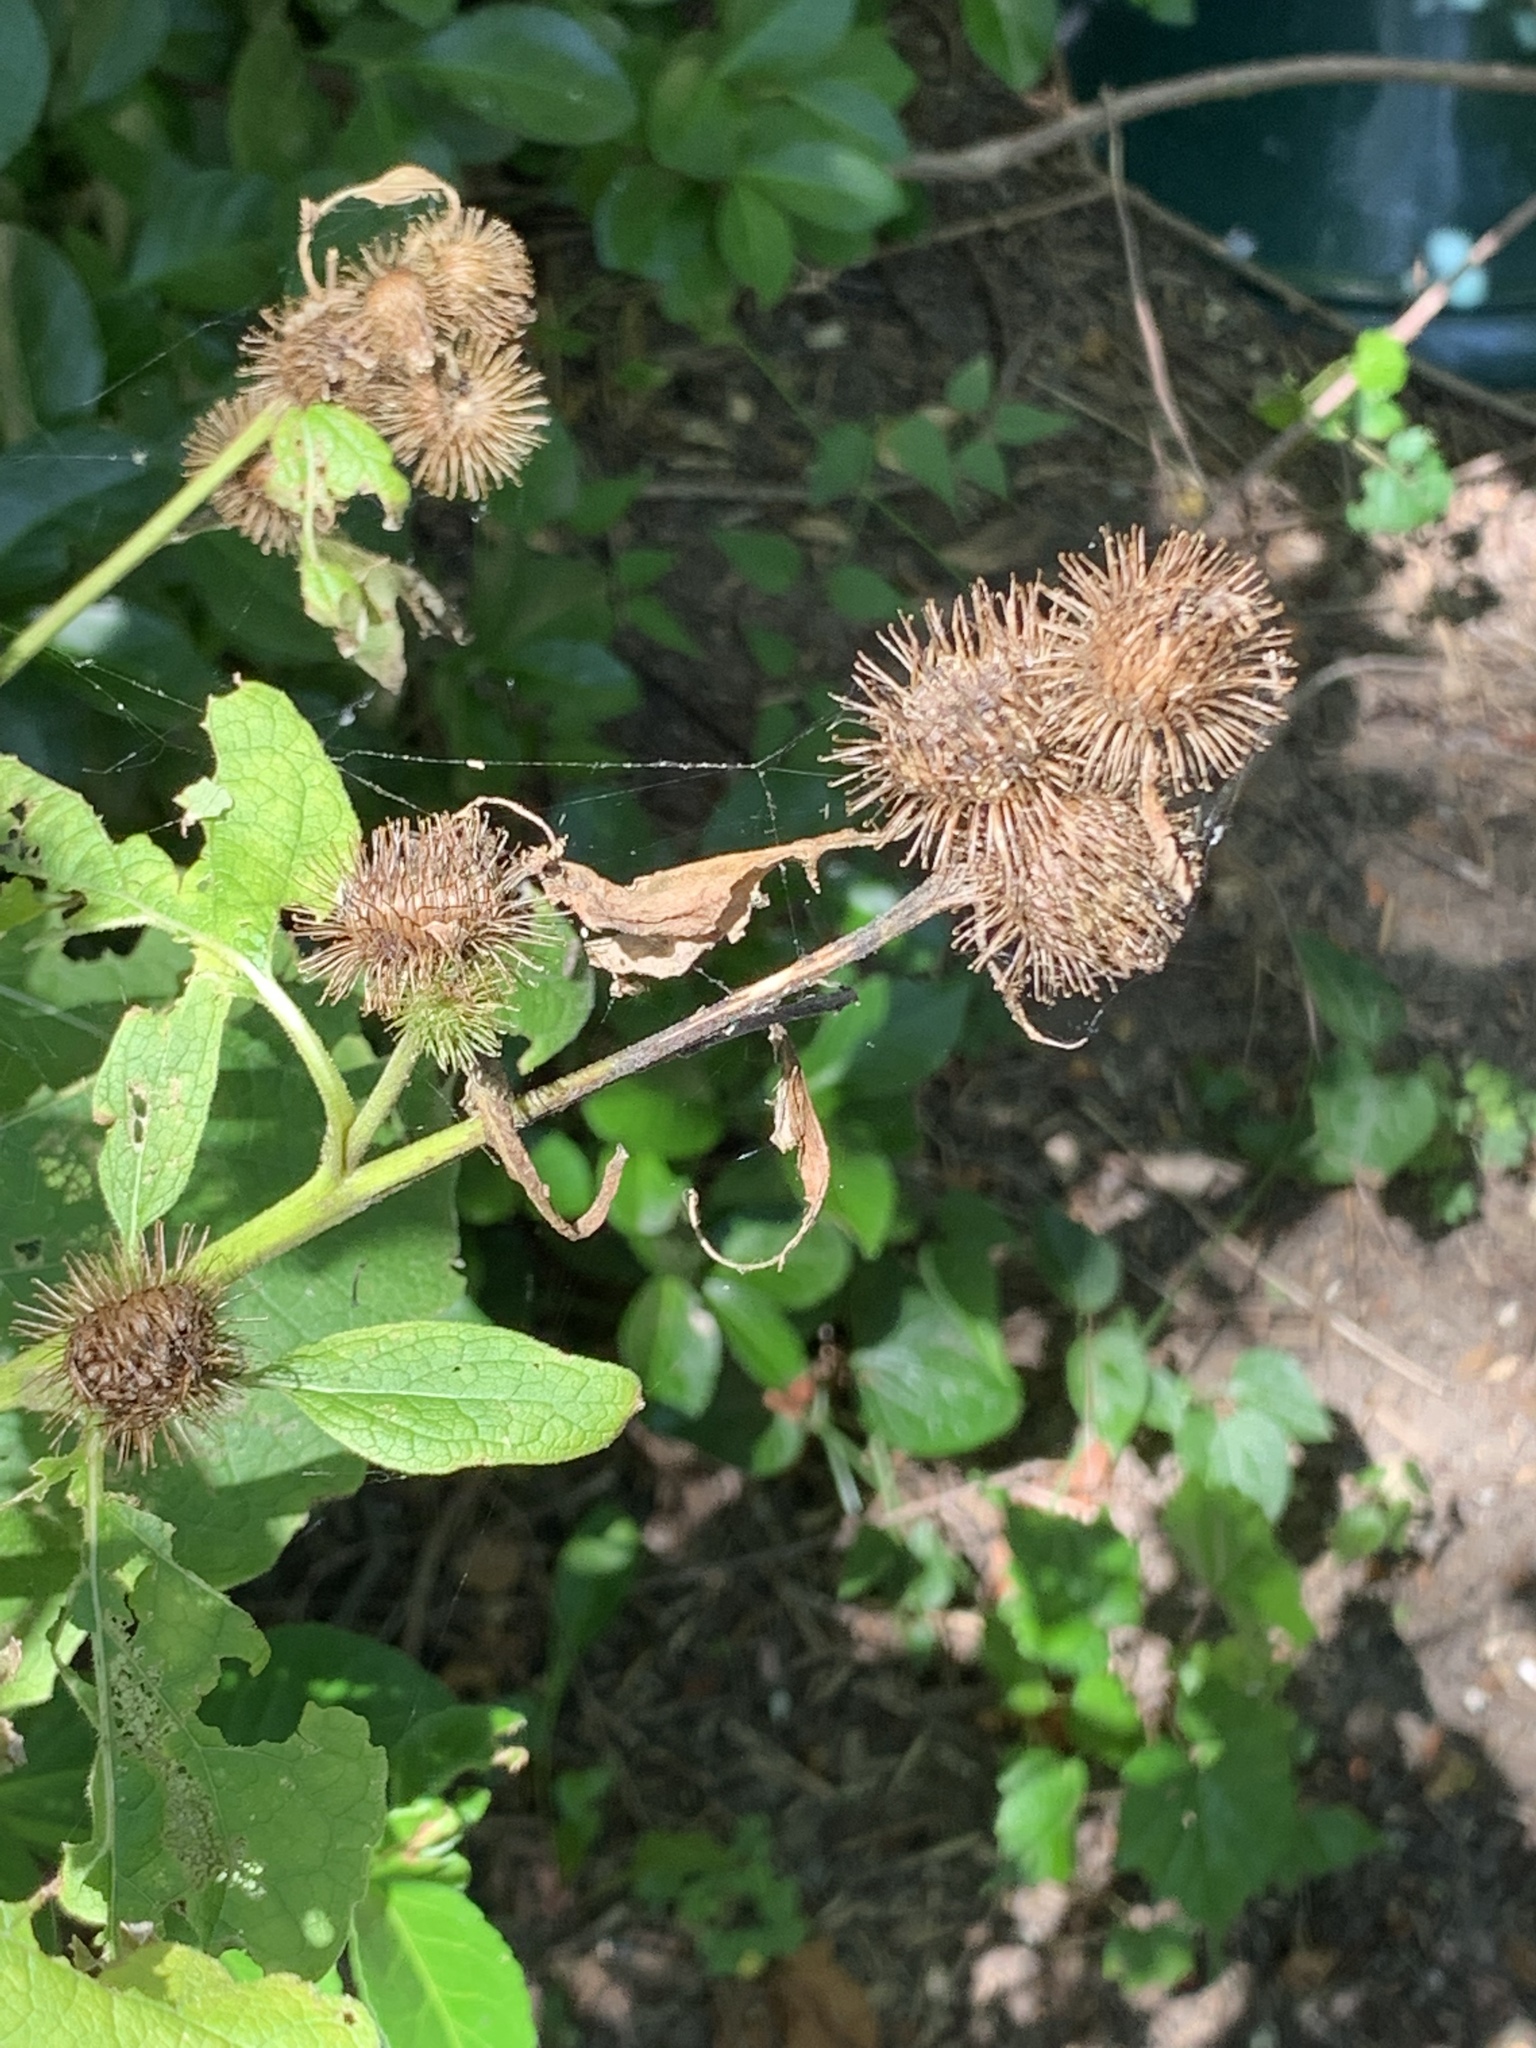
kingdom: Plantae
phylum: Tracheophyta
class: Magnoliopsida
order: Asterales
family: Asteraceae
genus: Arctium
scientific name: Arctium minus
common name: Lesser burdock
